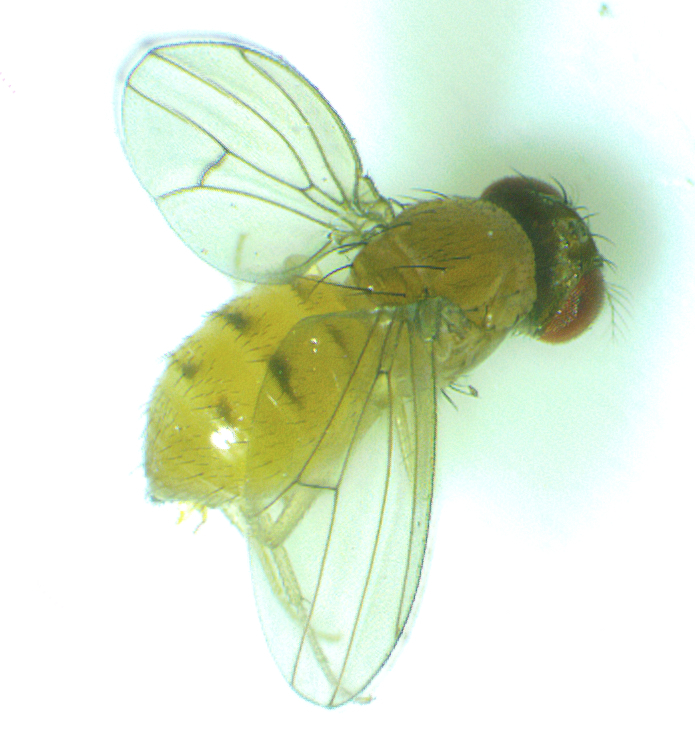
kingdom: Animalia
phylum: Arthropoda
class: Insecta
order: Diptera
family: Drosophilidae
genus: Drosophila
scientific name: Drosophila neotestacea
